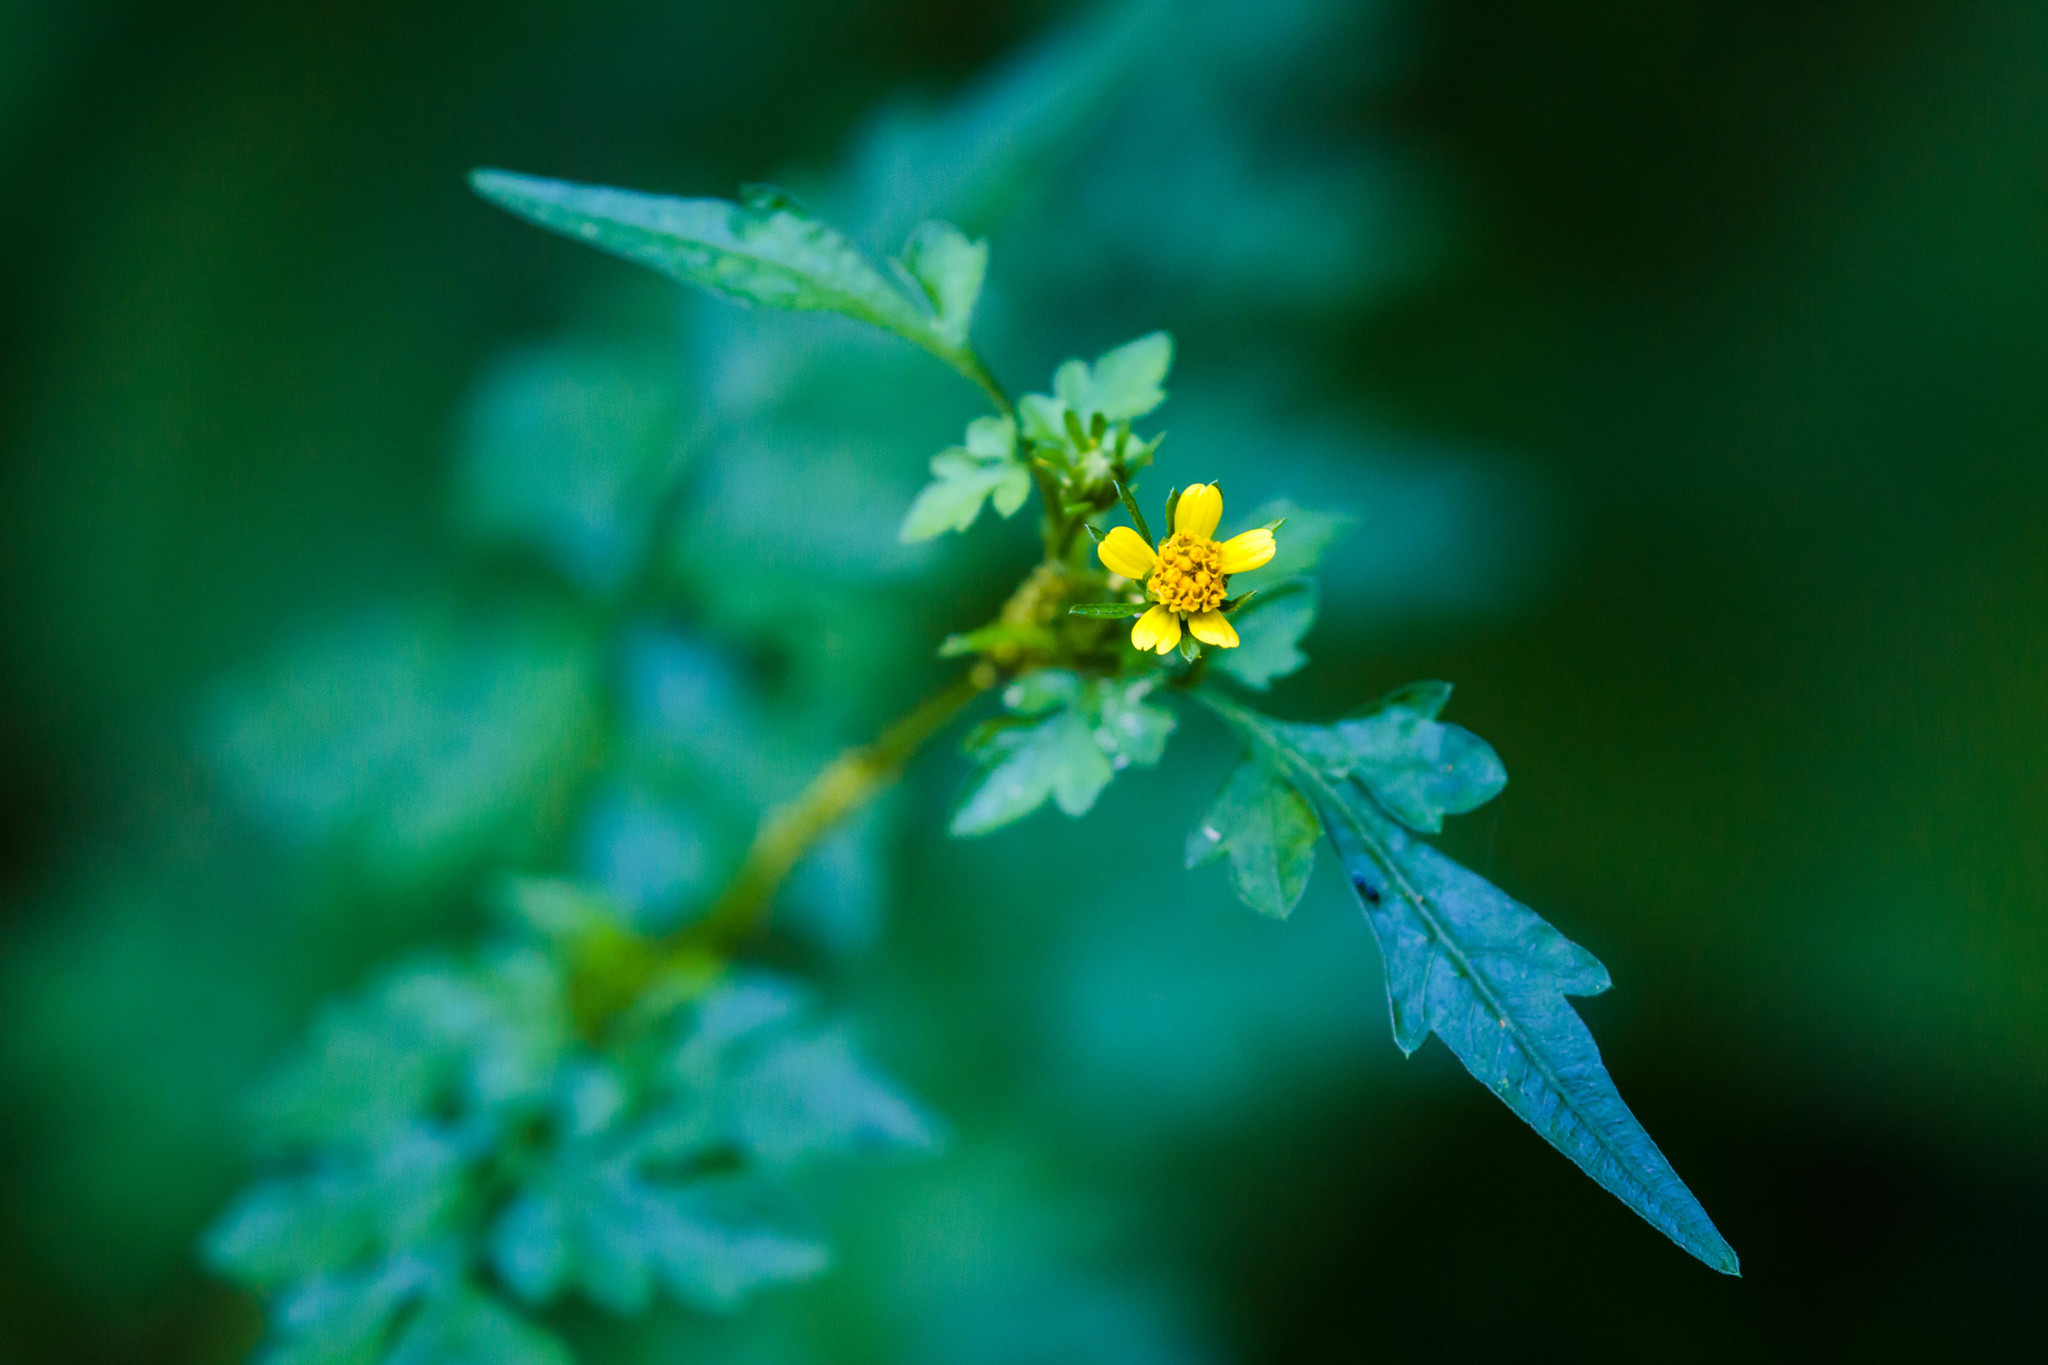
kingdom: Plantae
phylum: Tracheophyta
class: Magnoliopsida
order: Asterales
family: Asteraceae
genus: Bidens
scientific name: Bidens bipinnata
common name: Spanish-needles
